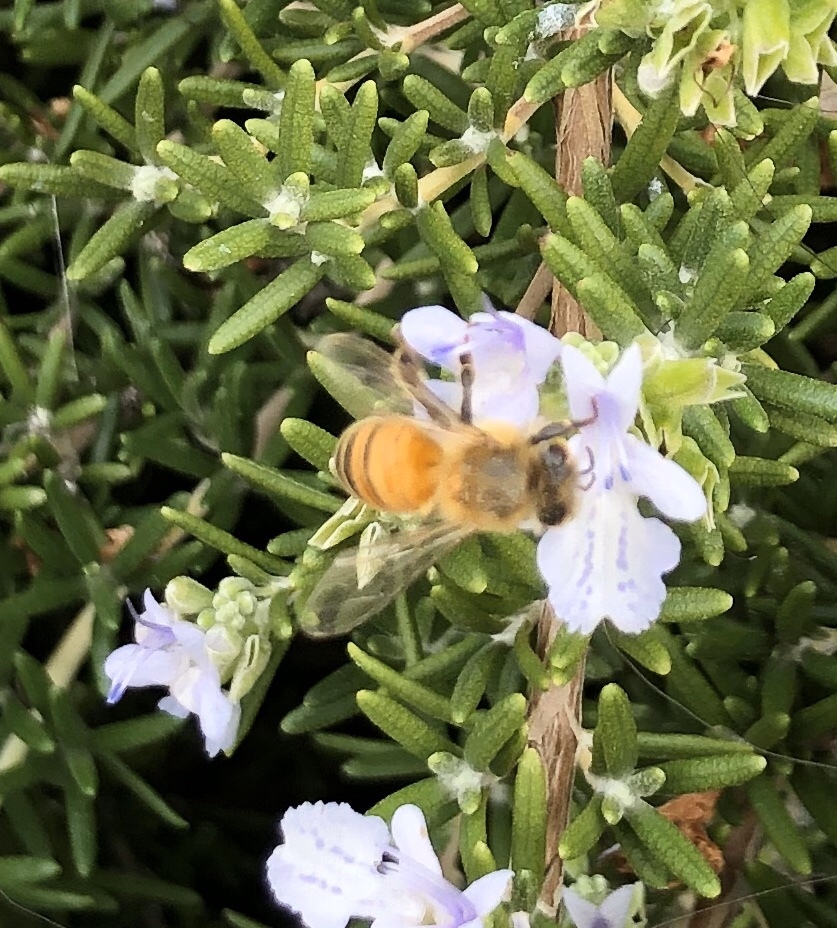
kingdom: Animalia
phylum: Arthropoda
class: Insecta
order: Hymenoptera
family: Apidae
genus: Apis
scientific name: Apis mellifera
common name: Honey bee
